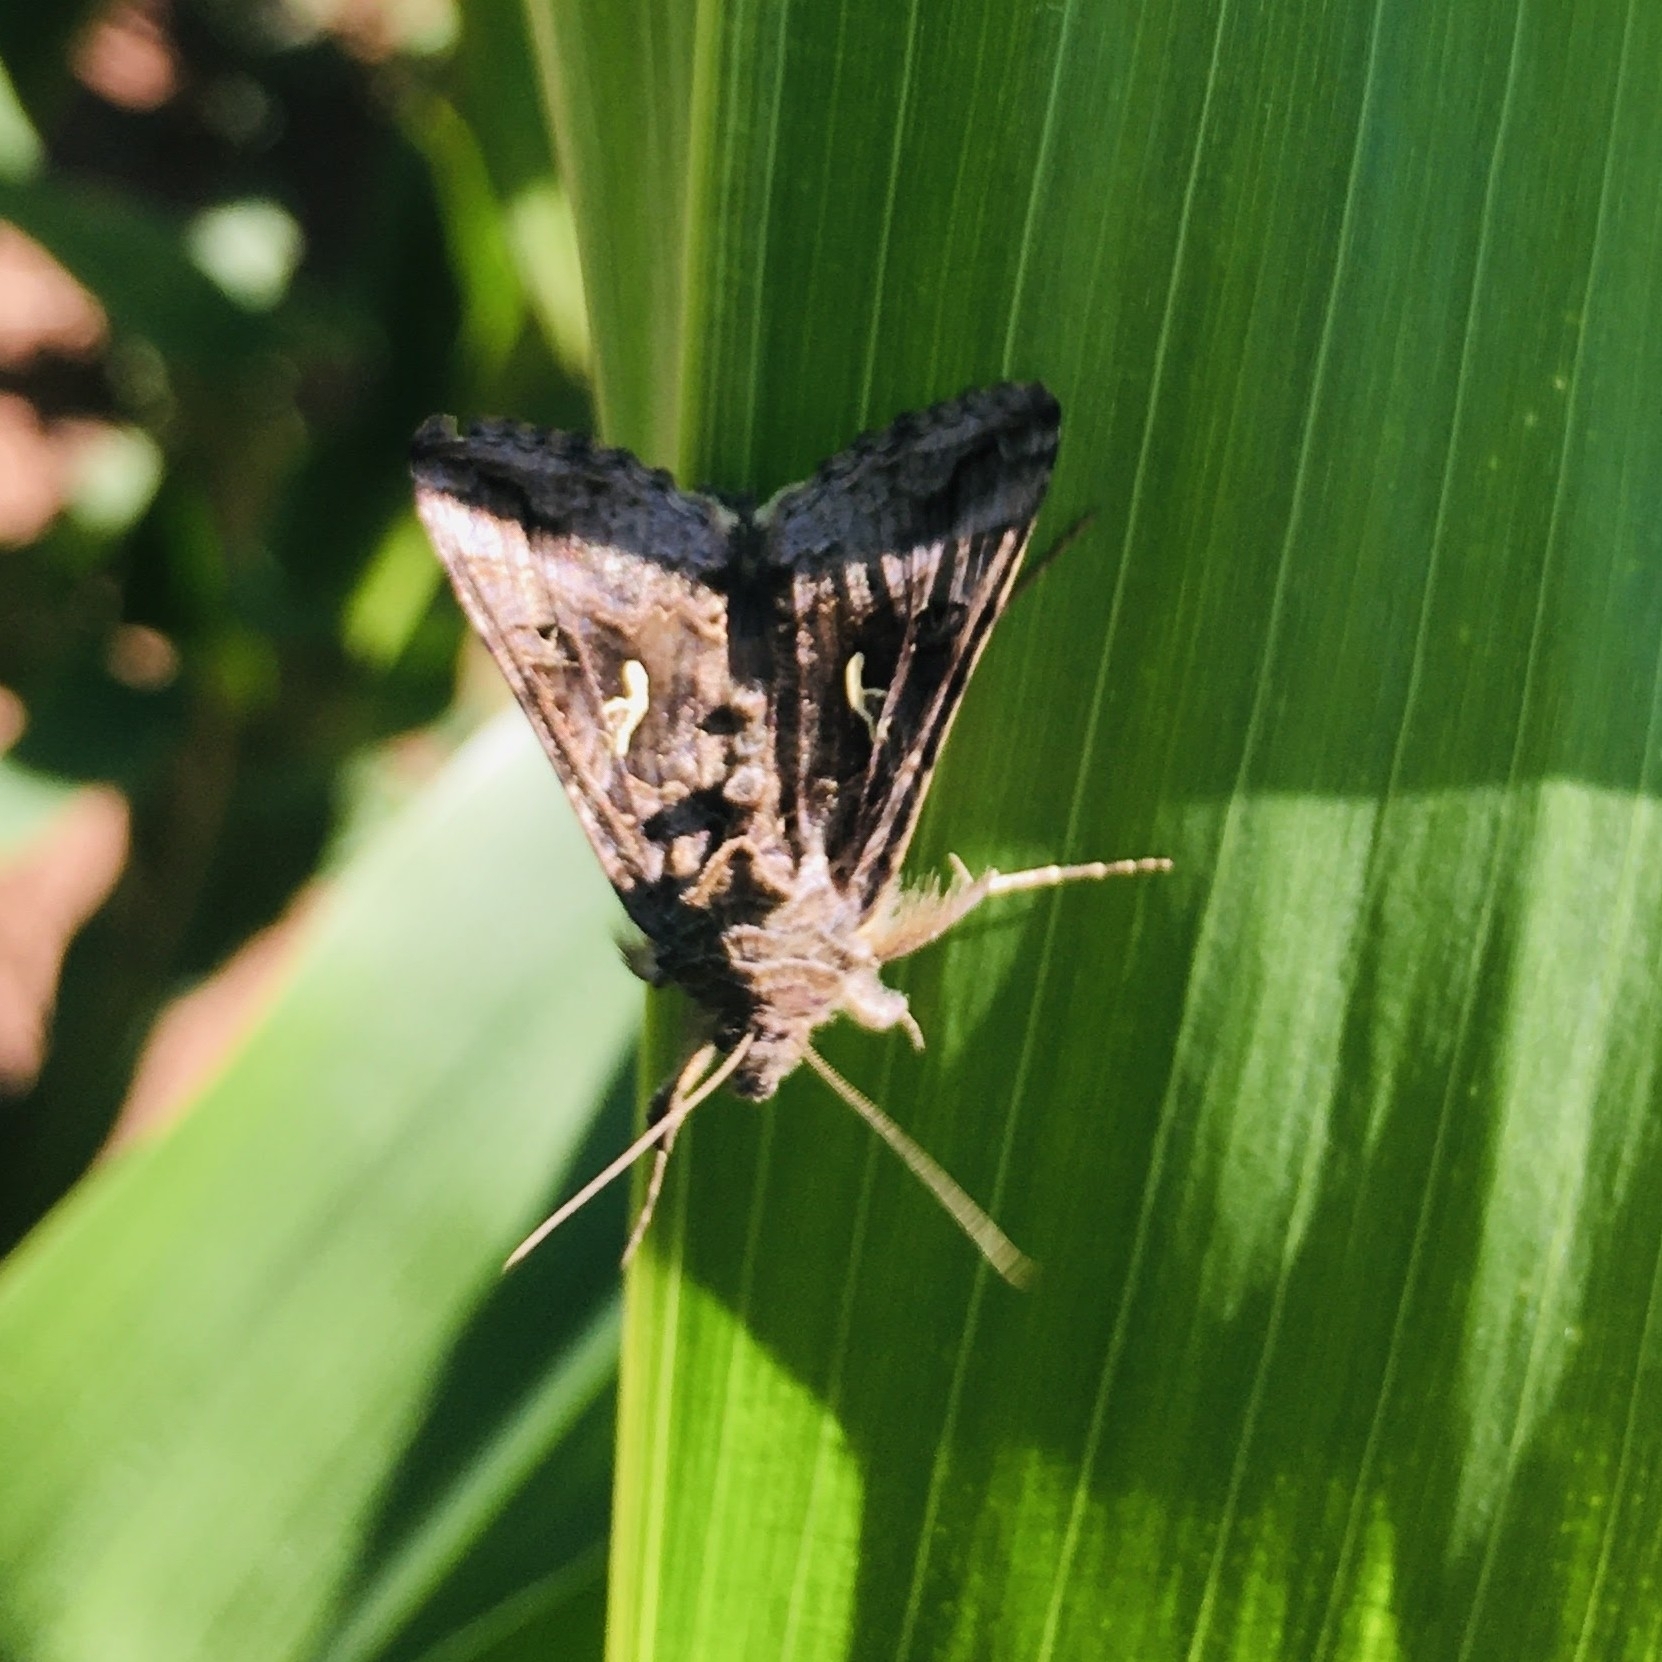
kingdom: Animalia
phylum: Arthropoda
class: Insecta
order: Lepidoptera
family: Noctuidae
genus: Autographa
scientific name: Autographa gamma
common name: Silver y
